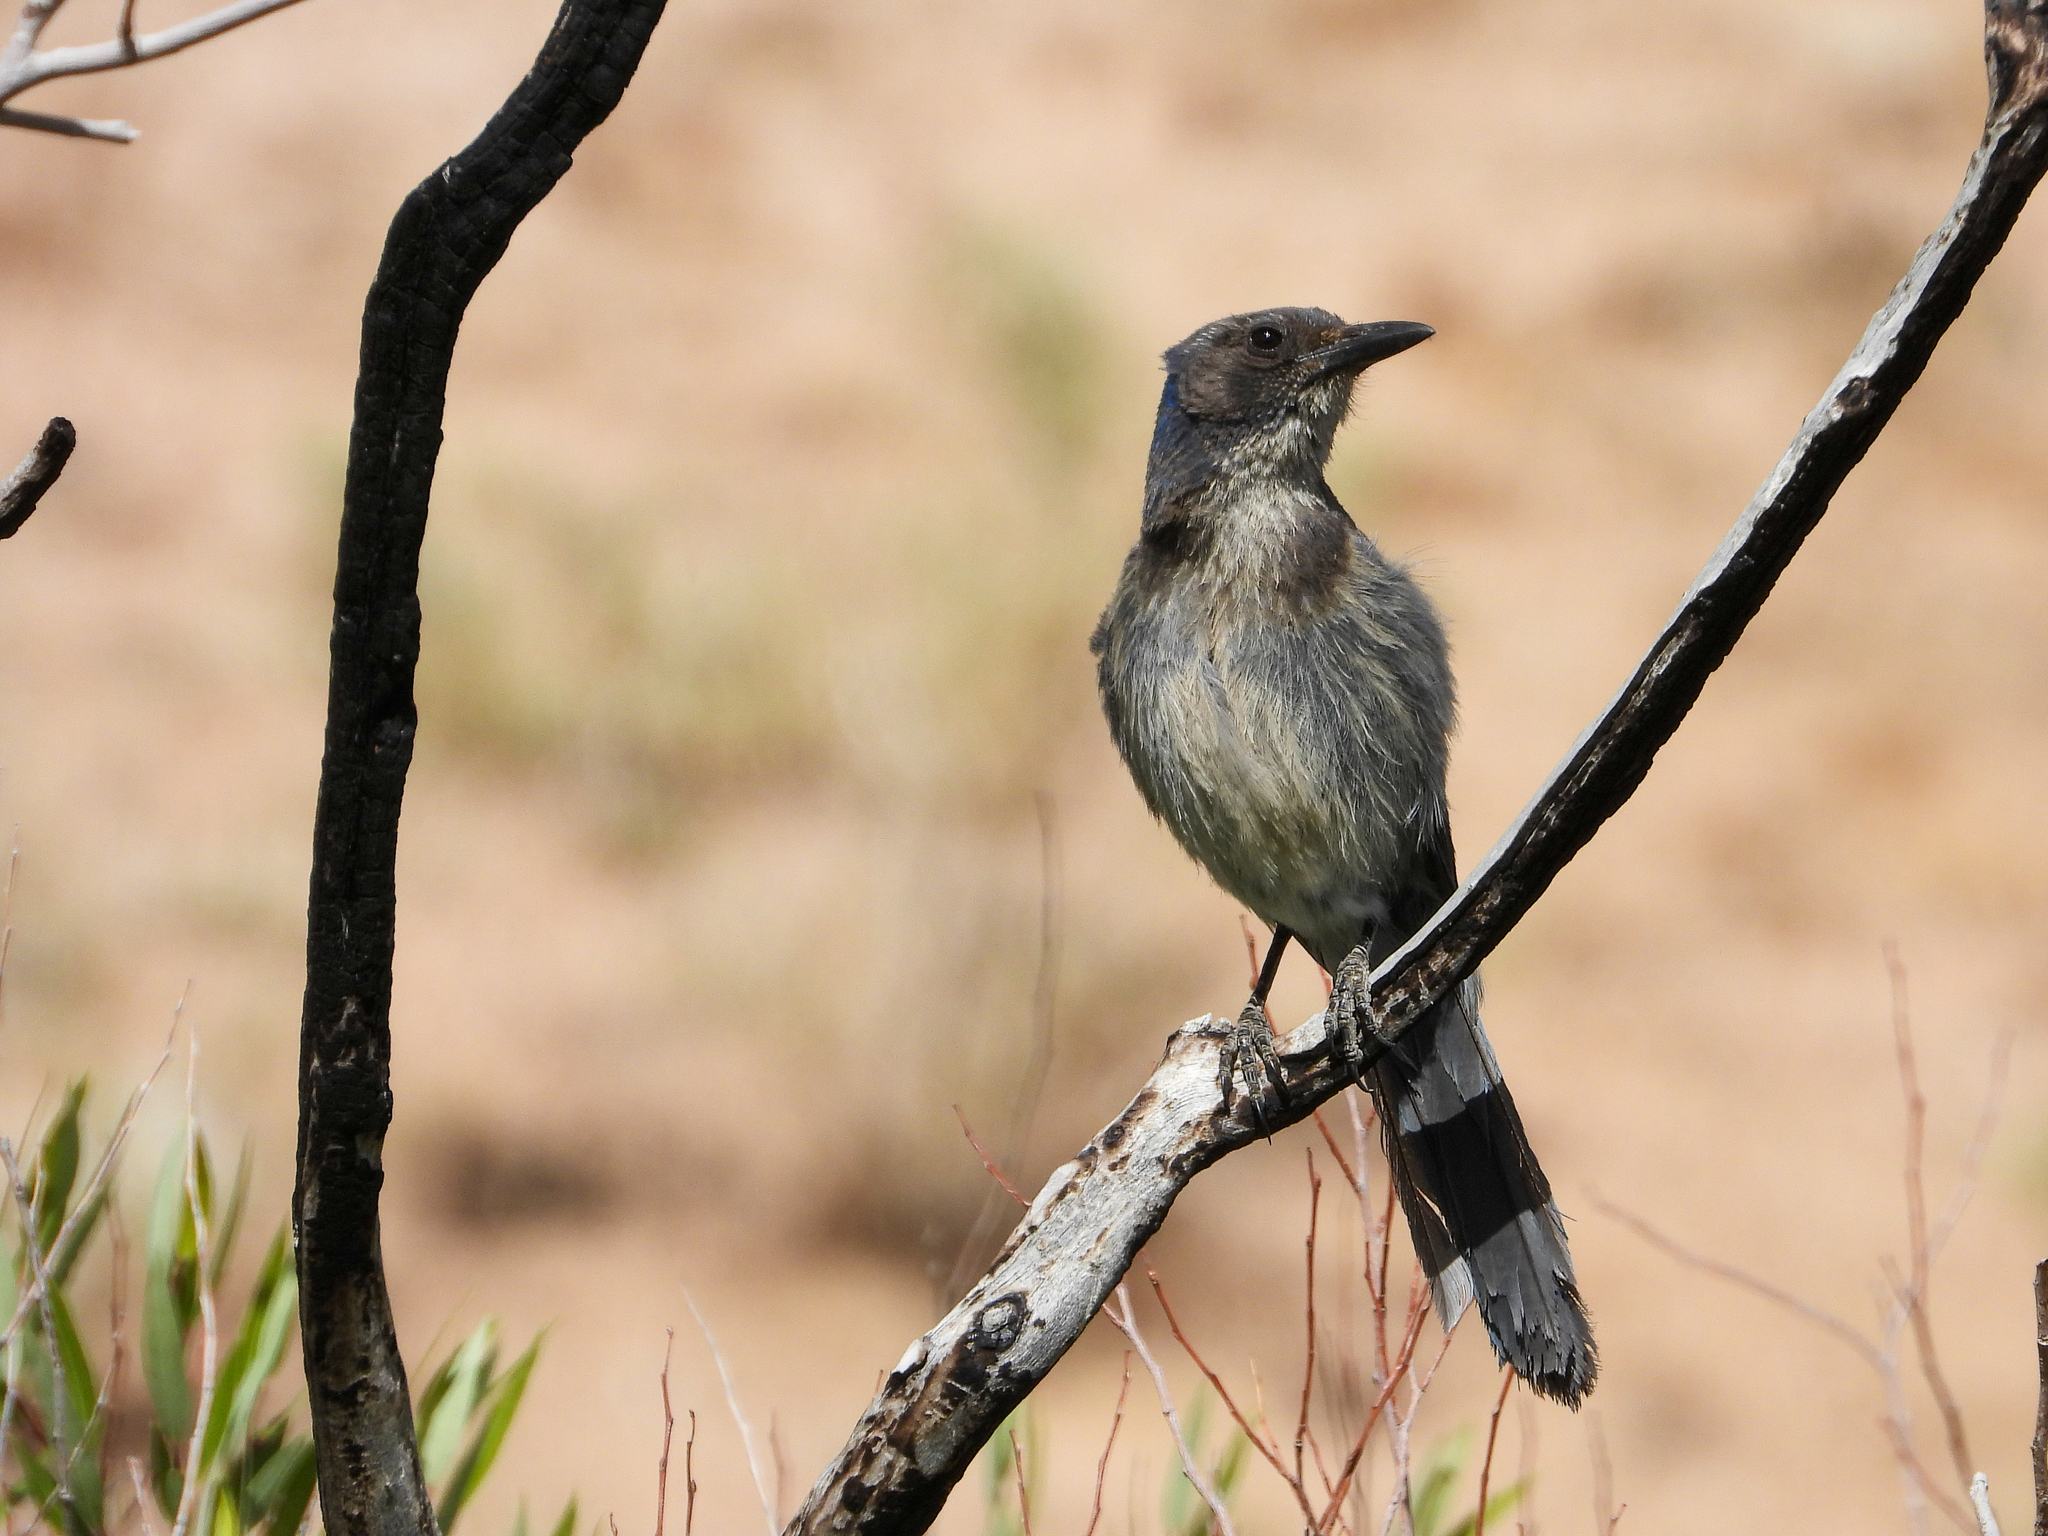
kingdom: Animalia
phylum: Chordata
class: Aves
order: Passeriformes
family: Corvidae
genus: Aphelocoma
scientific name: Aphelocoma californica
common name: California scrub-jay
